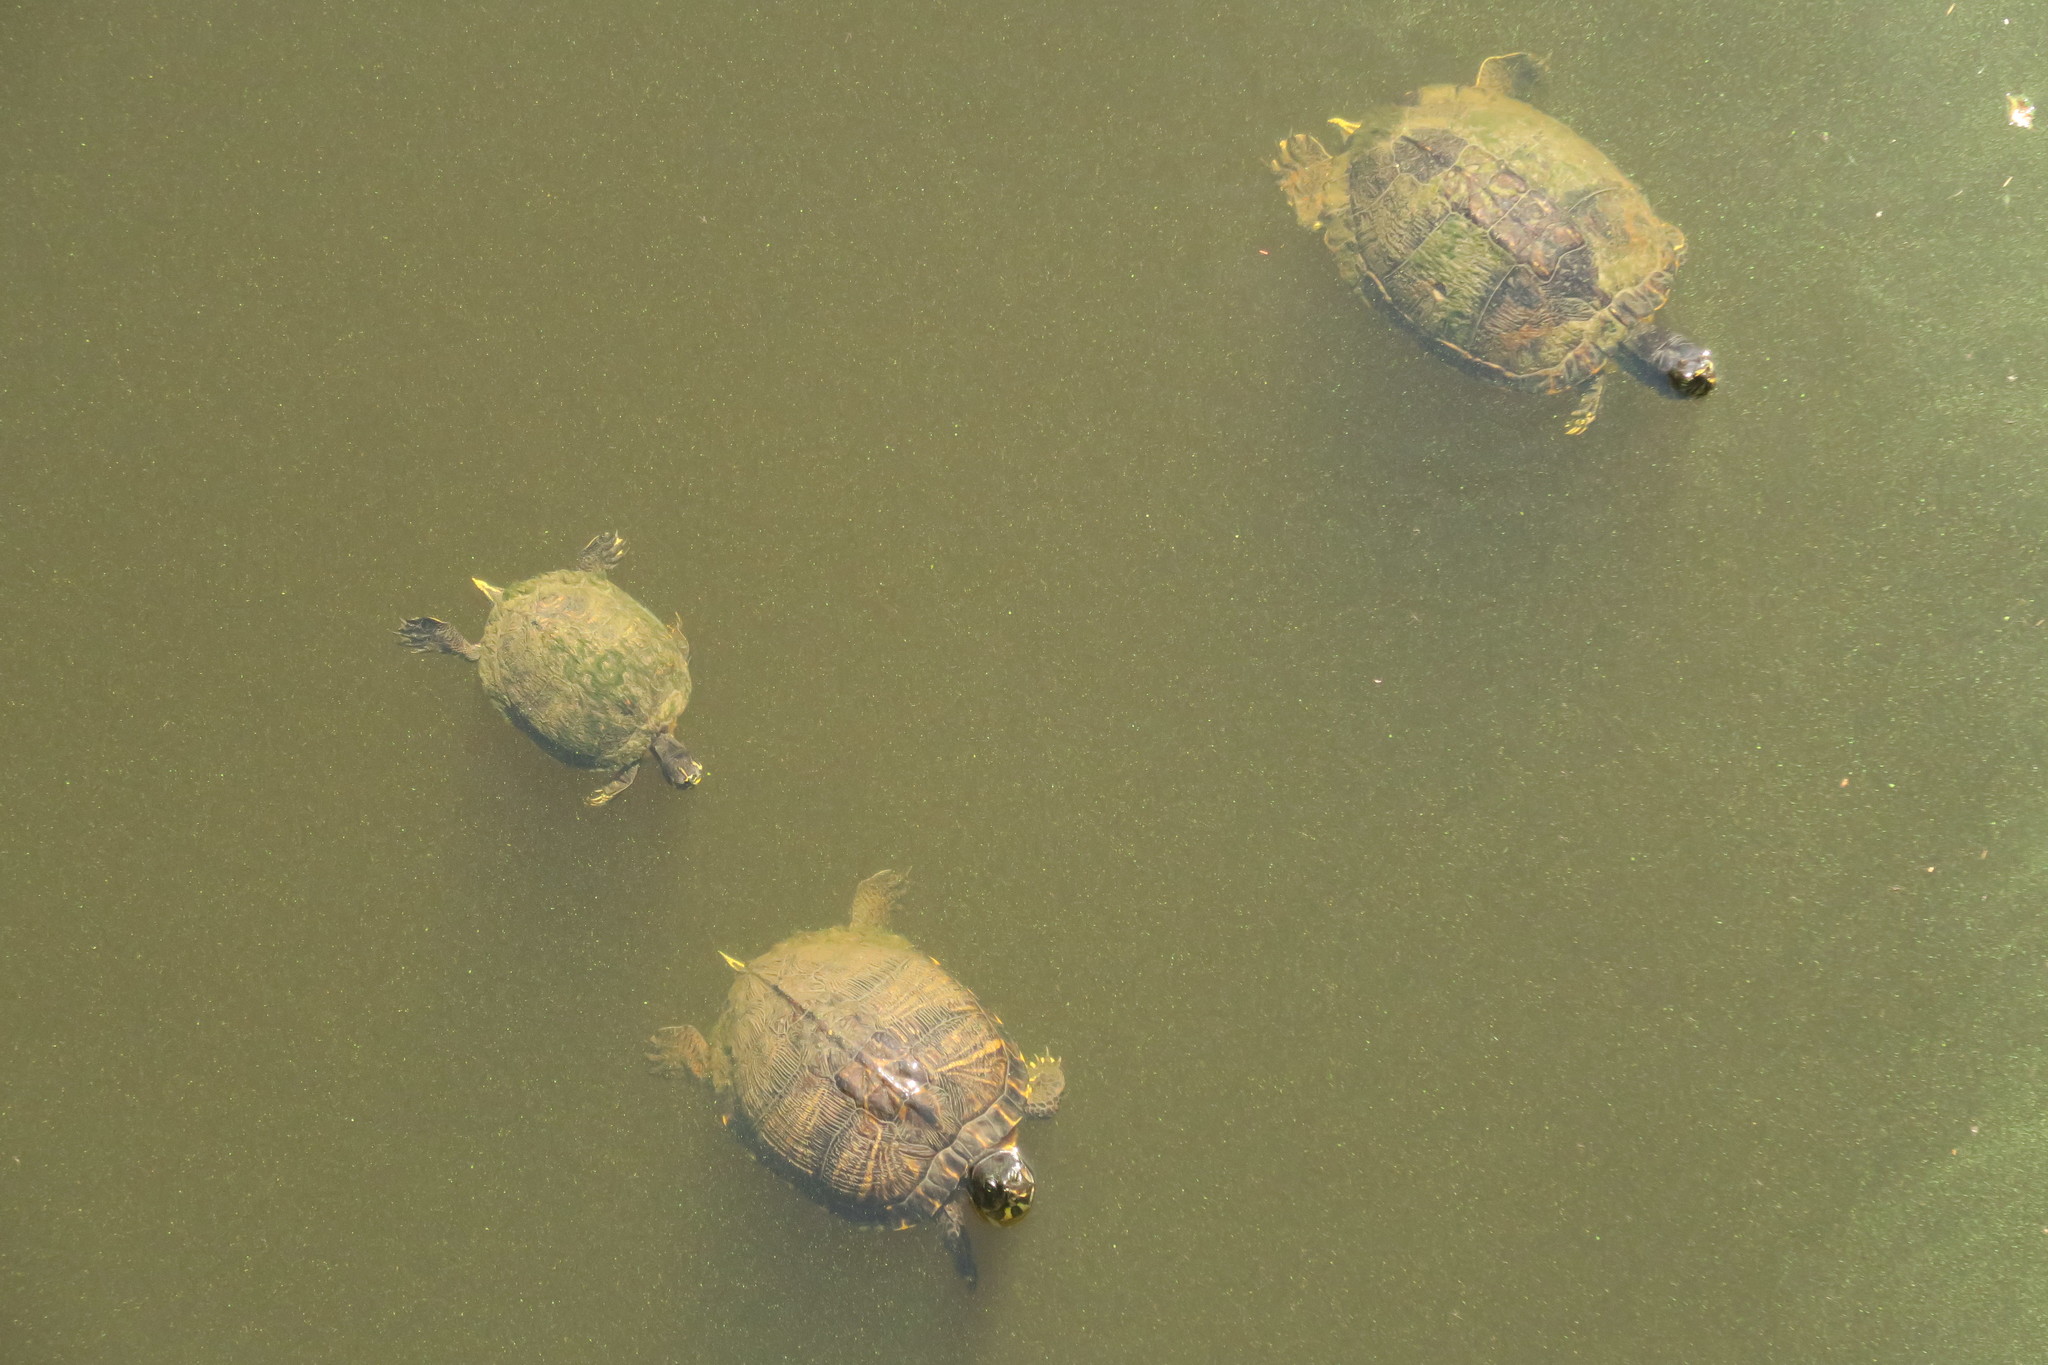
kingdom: Animalia
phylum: Chordata
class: Testudines
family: Emydidae
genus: Trachemys
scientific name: Trachemys scripta
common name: Slider
